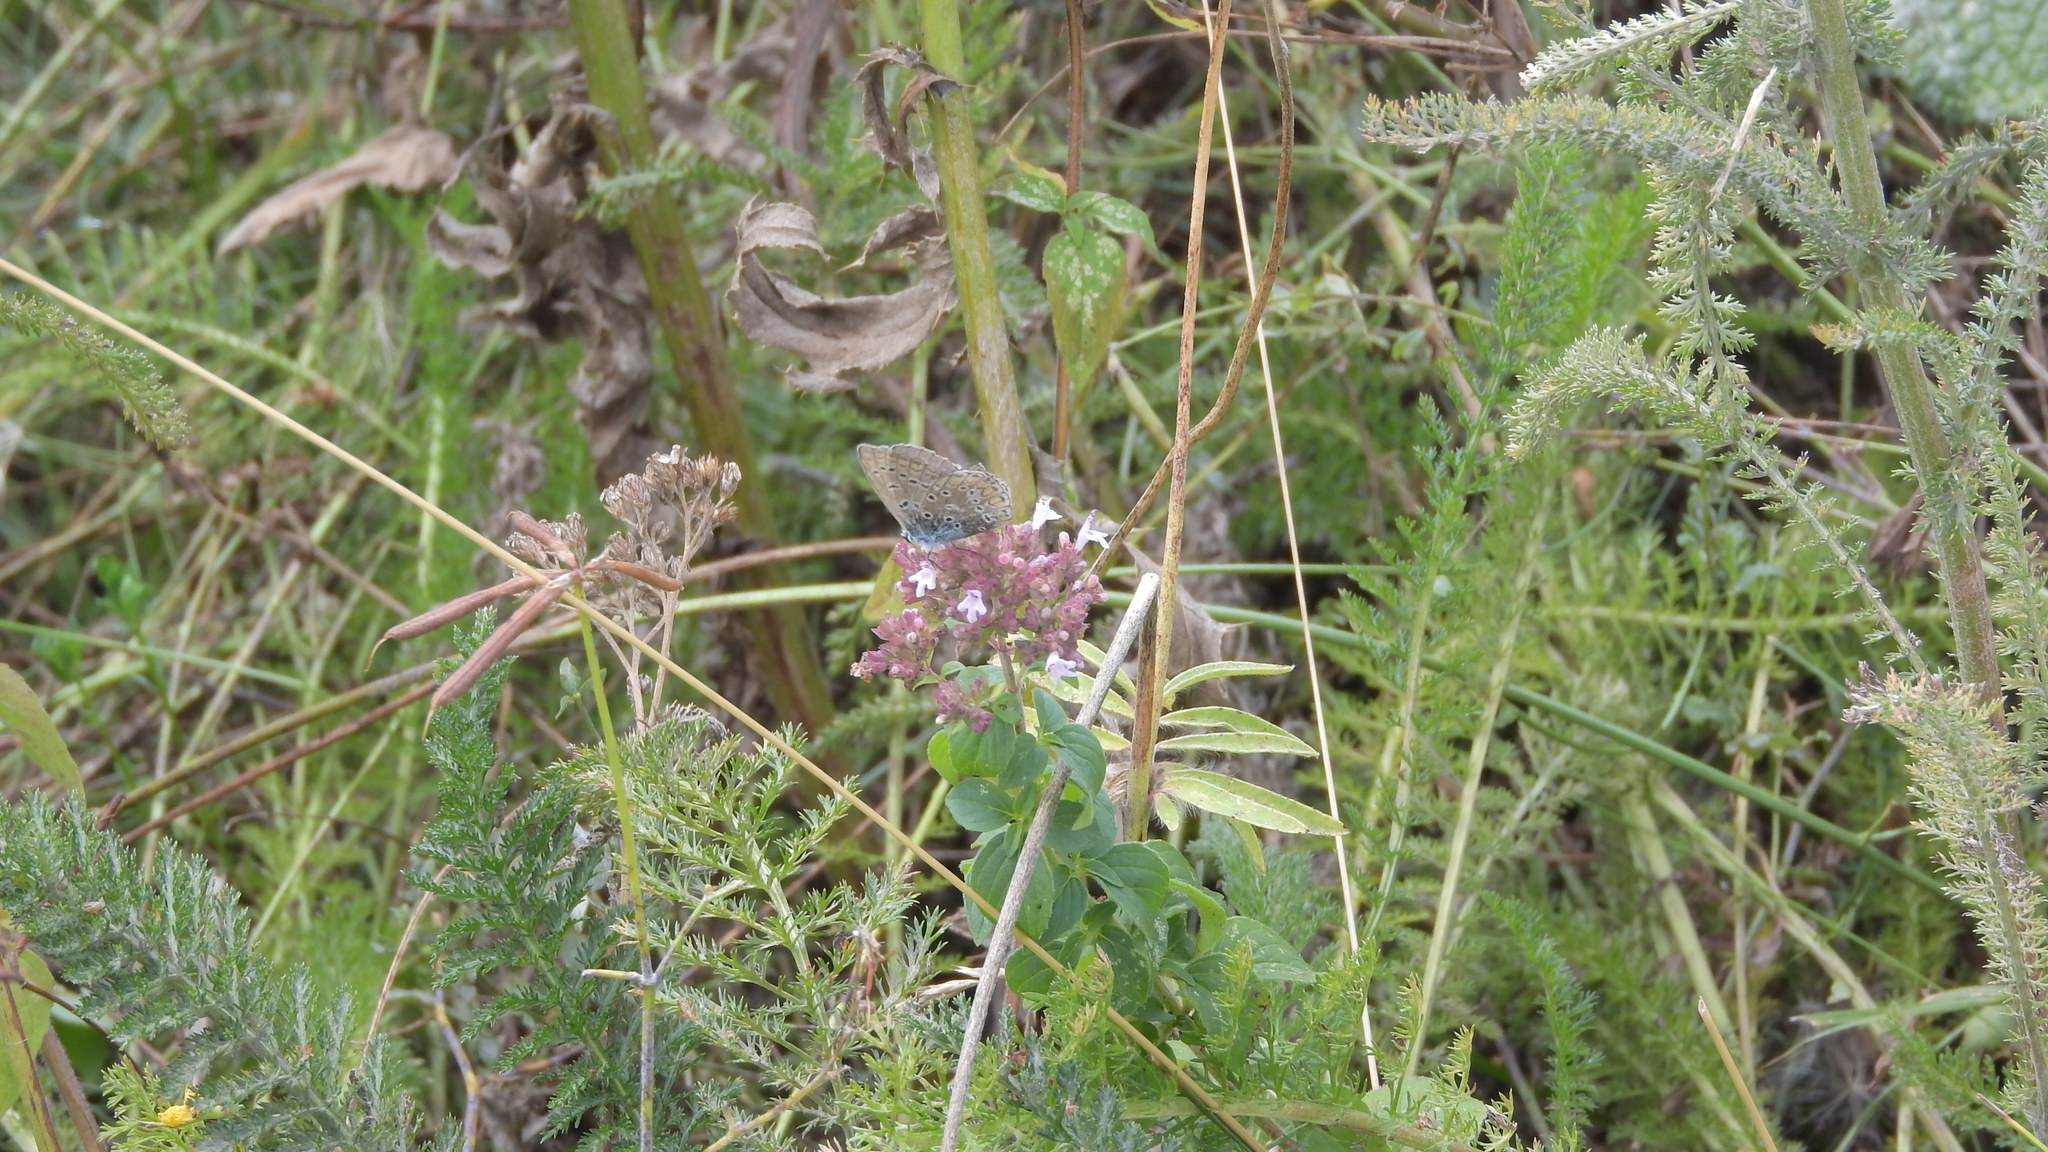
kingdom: Animalia
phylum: Arthropoda
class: Insecta
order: Lepidoptera
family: Lycaenidae
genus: Polyommatus
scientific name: Polyommatus icarus
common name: Common blue
